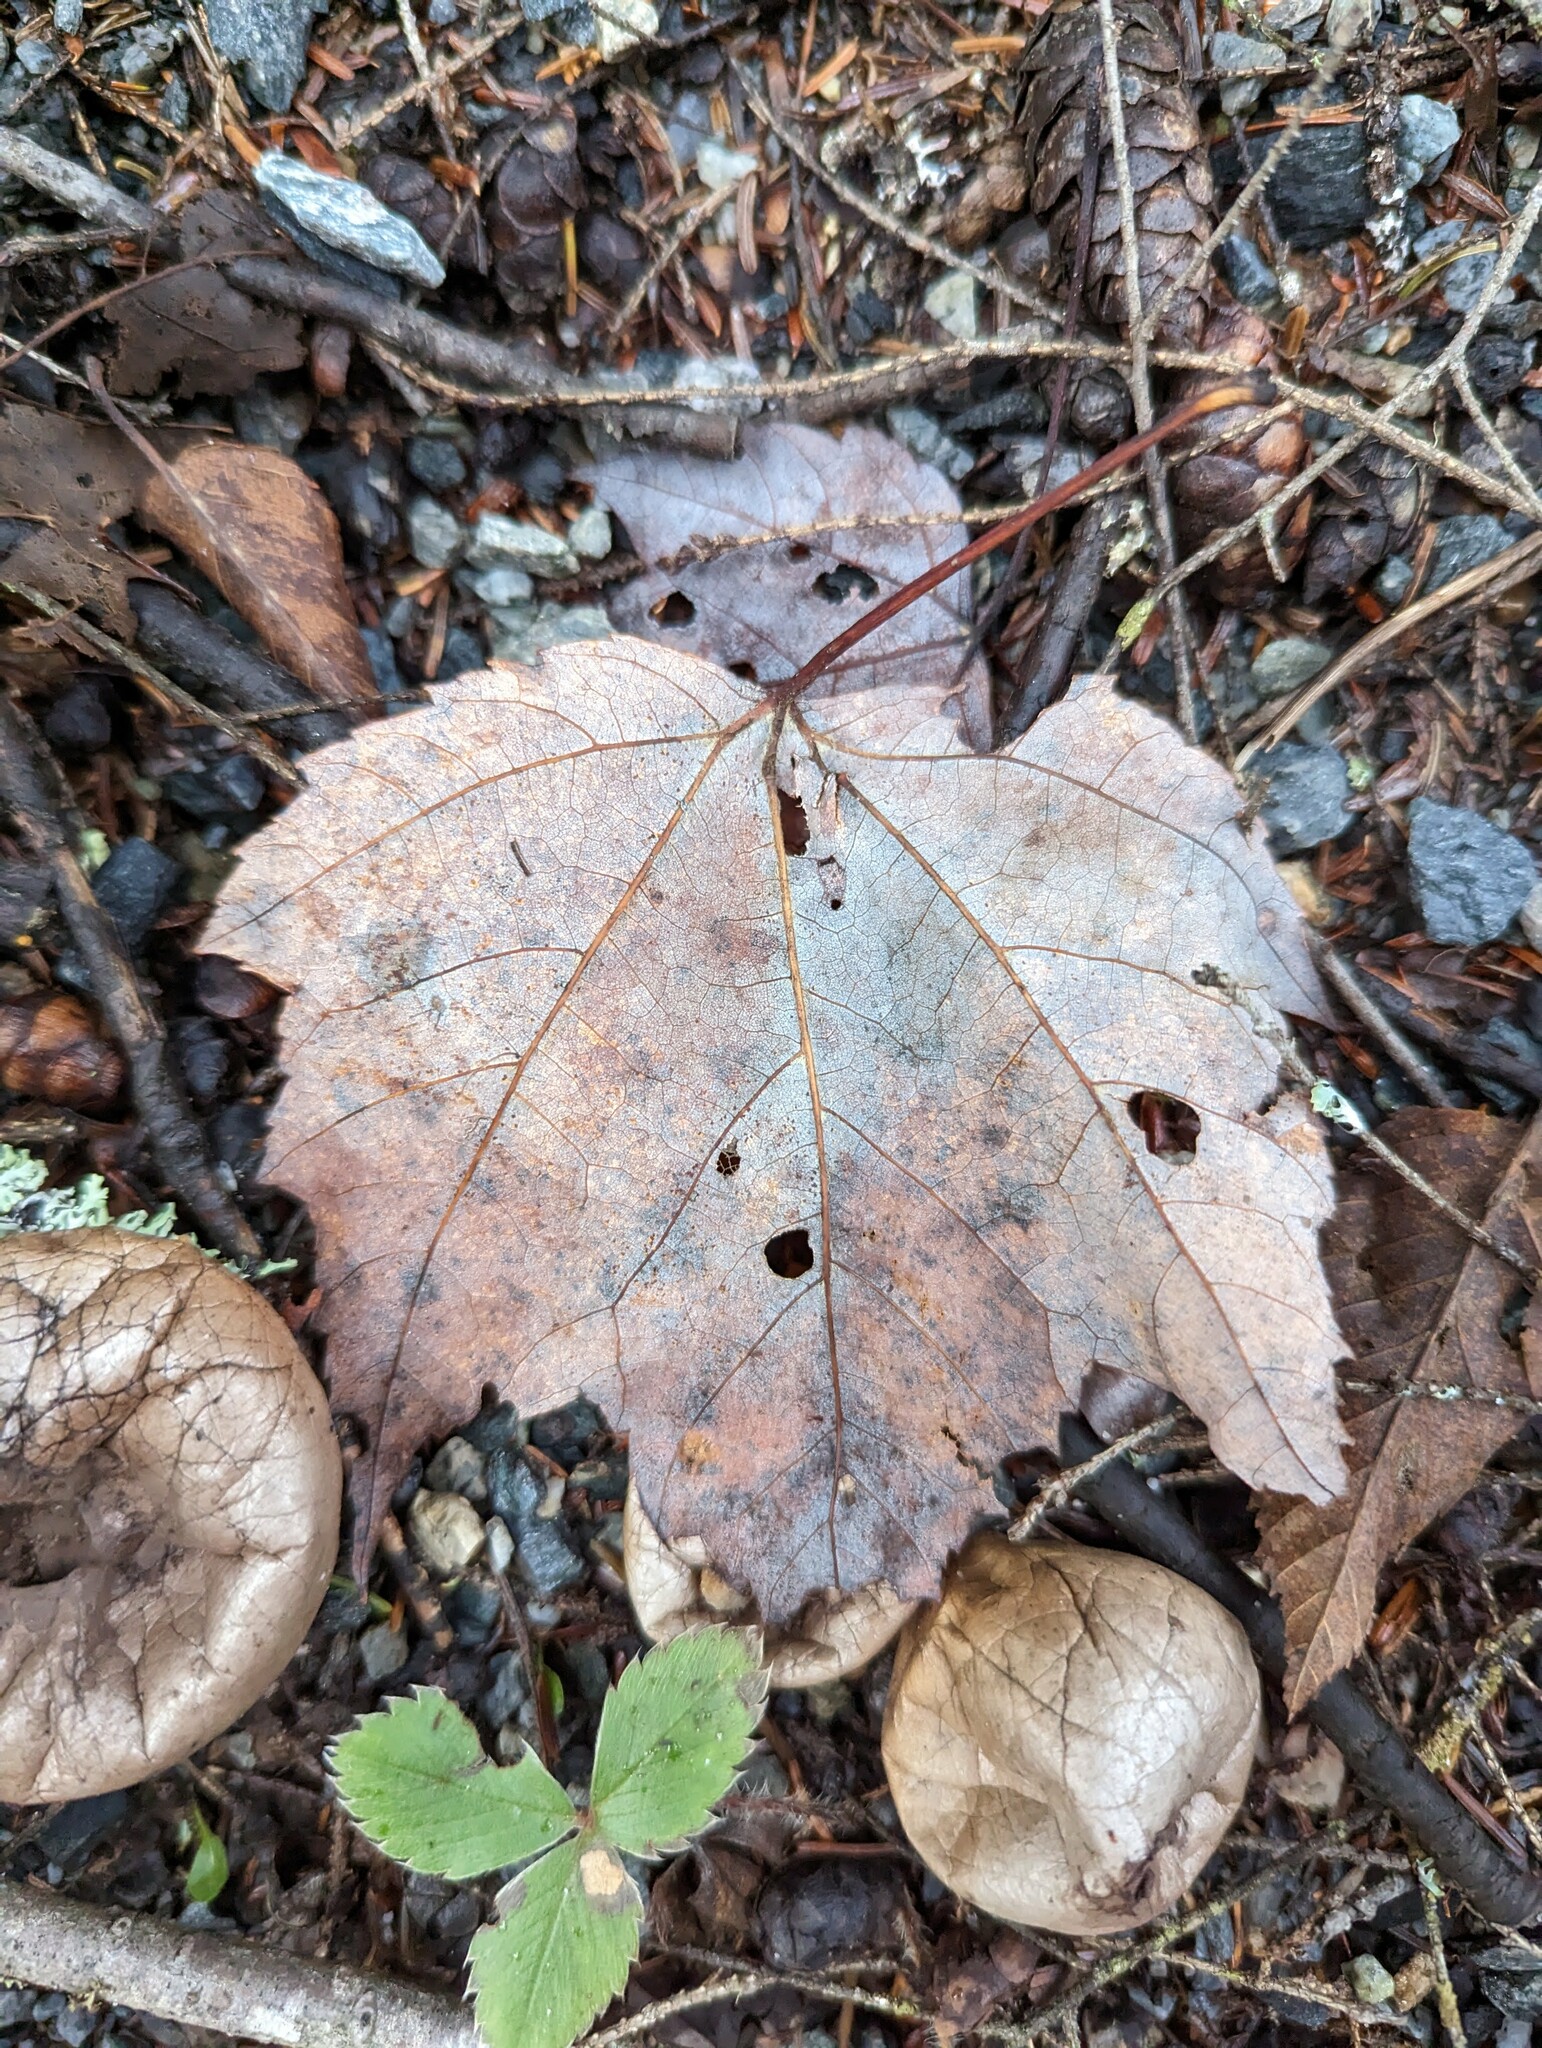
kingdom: Plantae
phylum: Tracheophyta
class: Magnoliopsida
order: Sapindales
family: Sapindaceae
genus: Acer
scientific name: Acer rubrum
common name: Red maple
